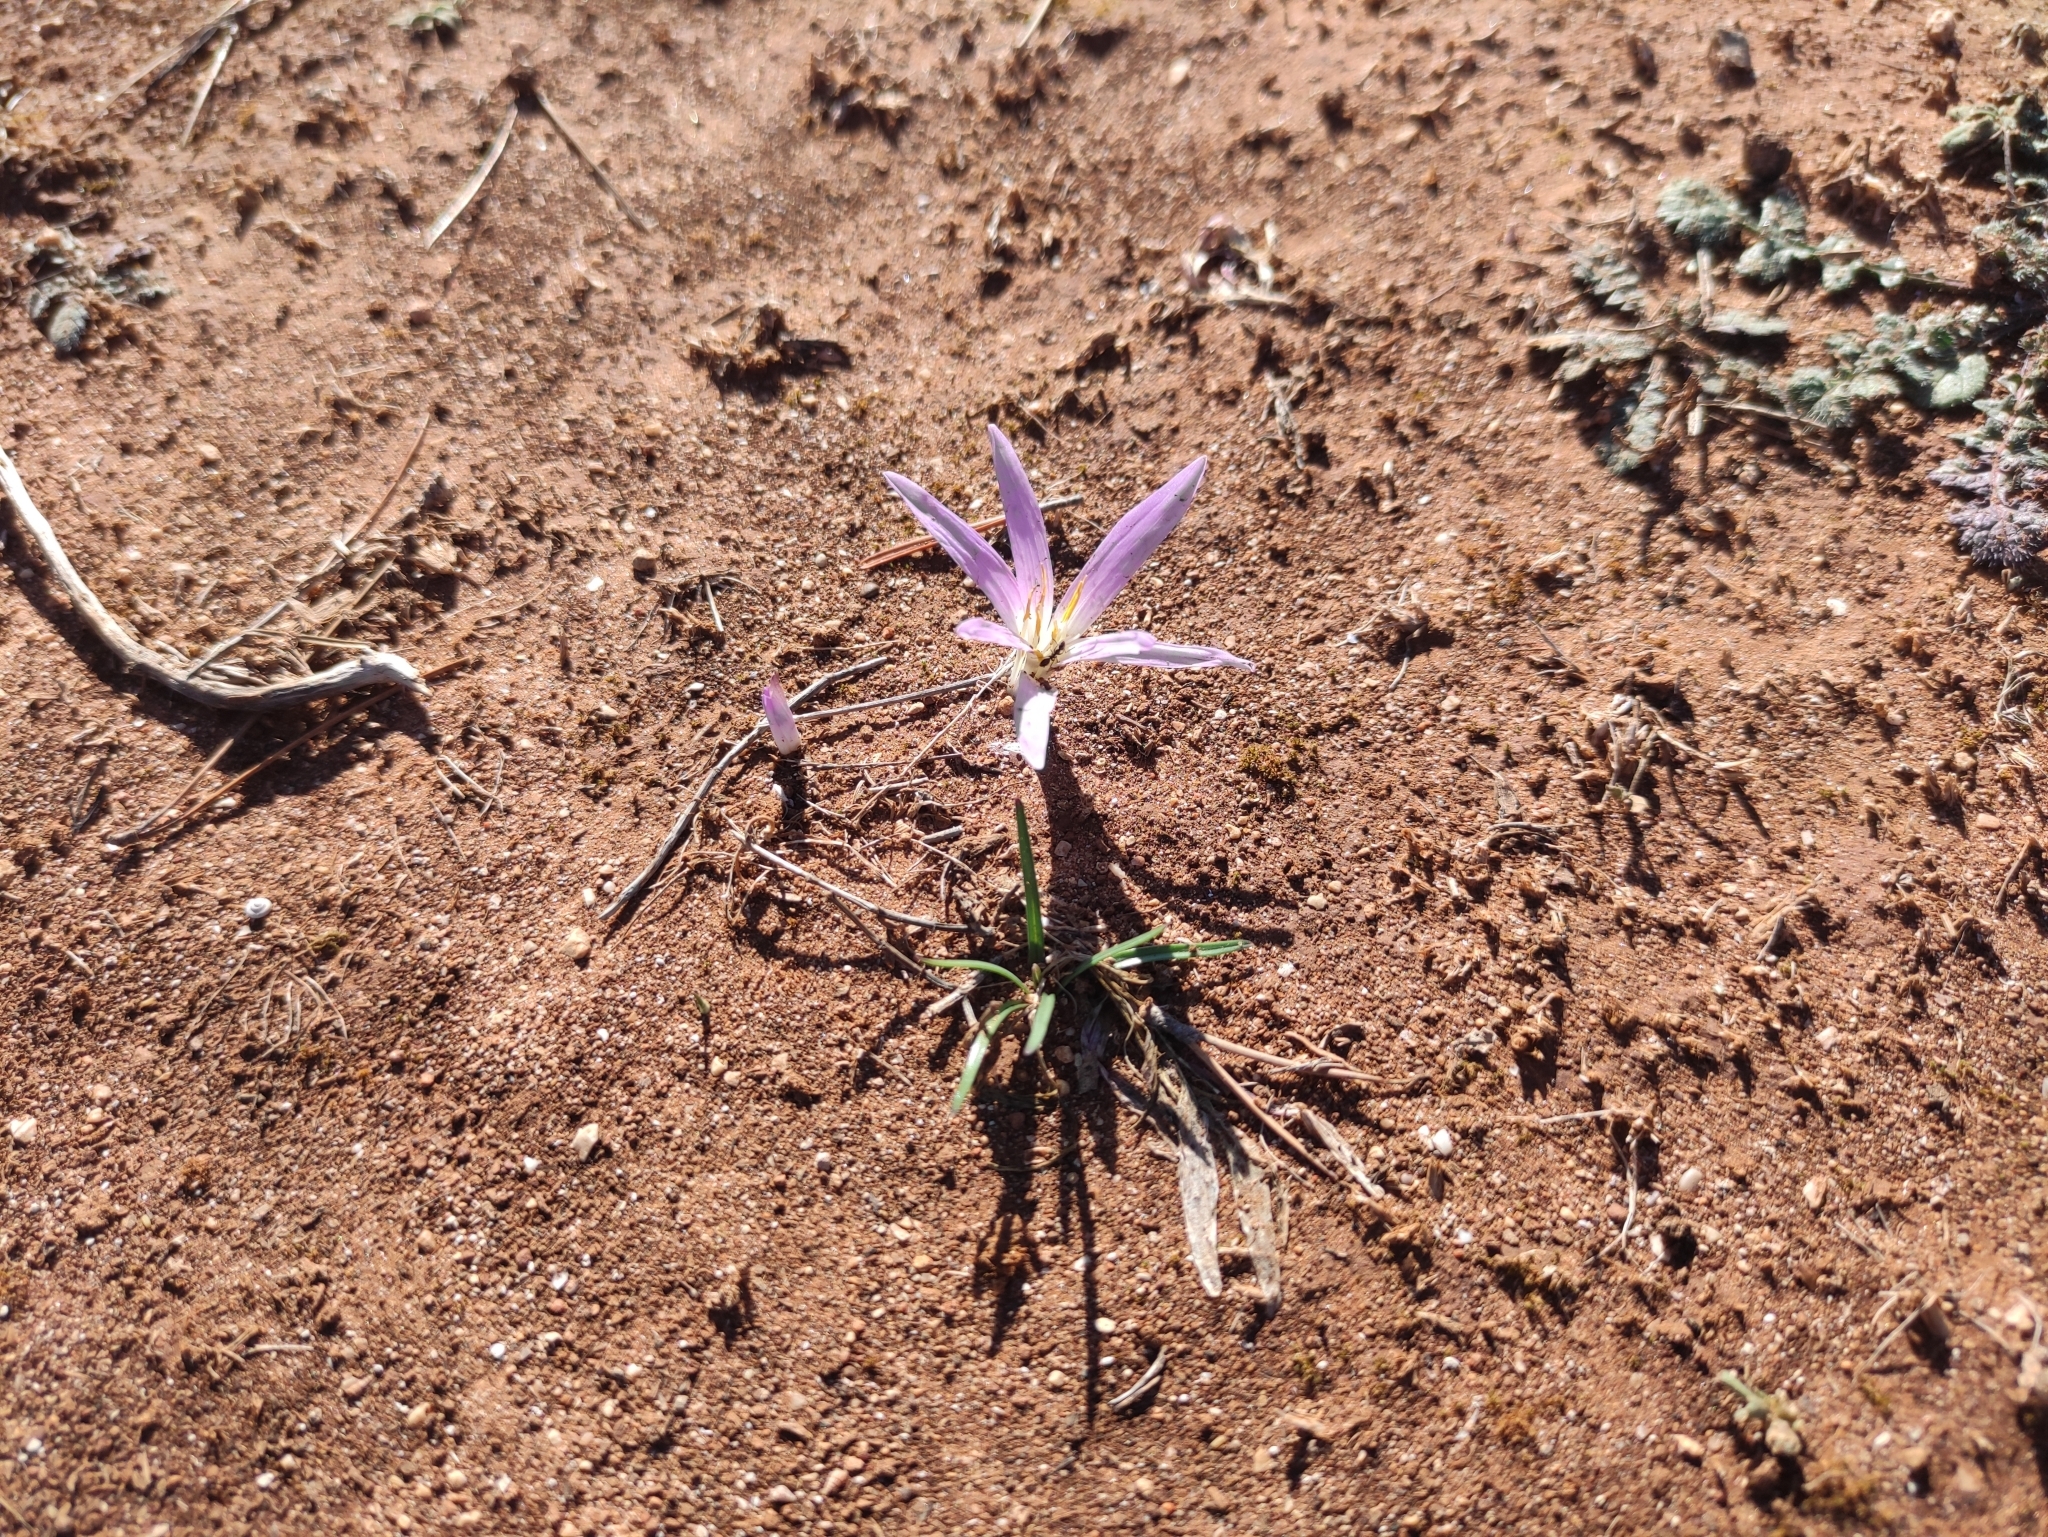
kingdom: Plantae
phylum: Tracheophyta
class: Liliopsida
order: Liliales
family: Colchicaceae
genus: Colchicum
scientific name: Colchicum filifolium
